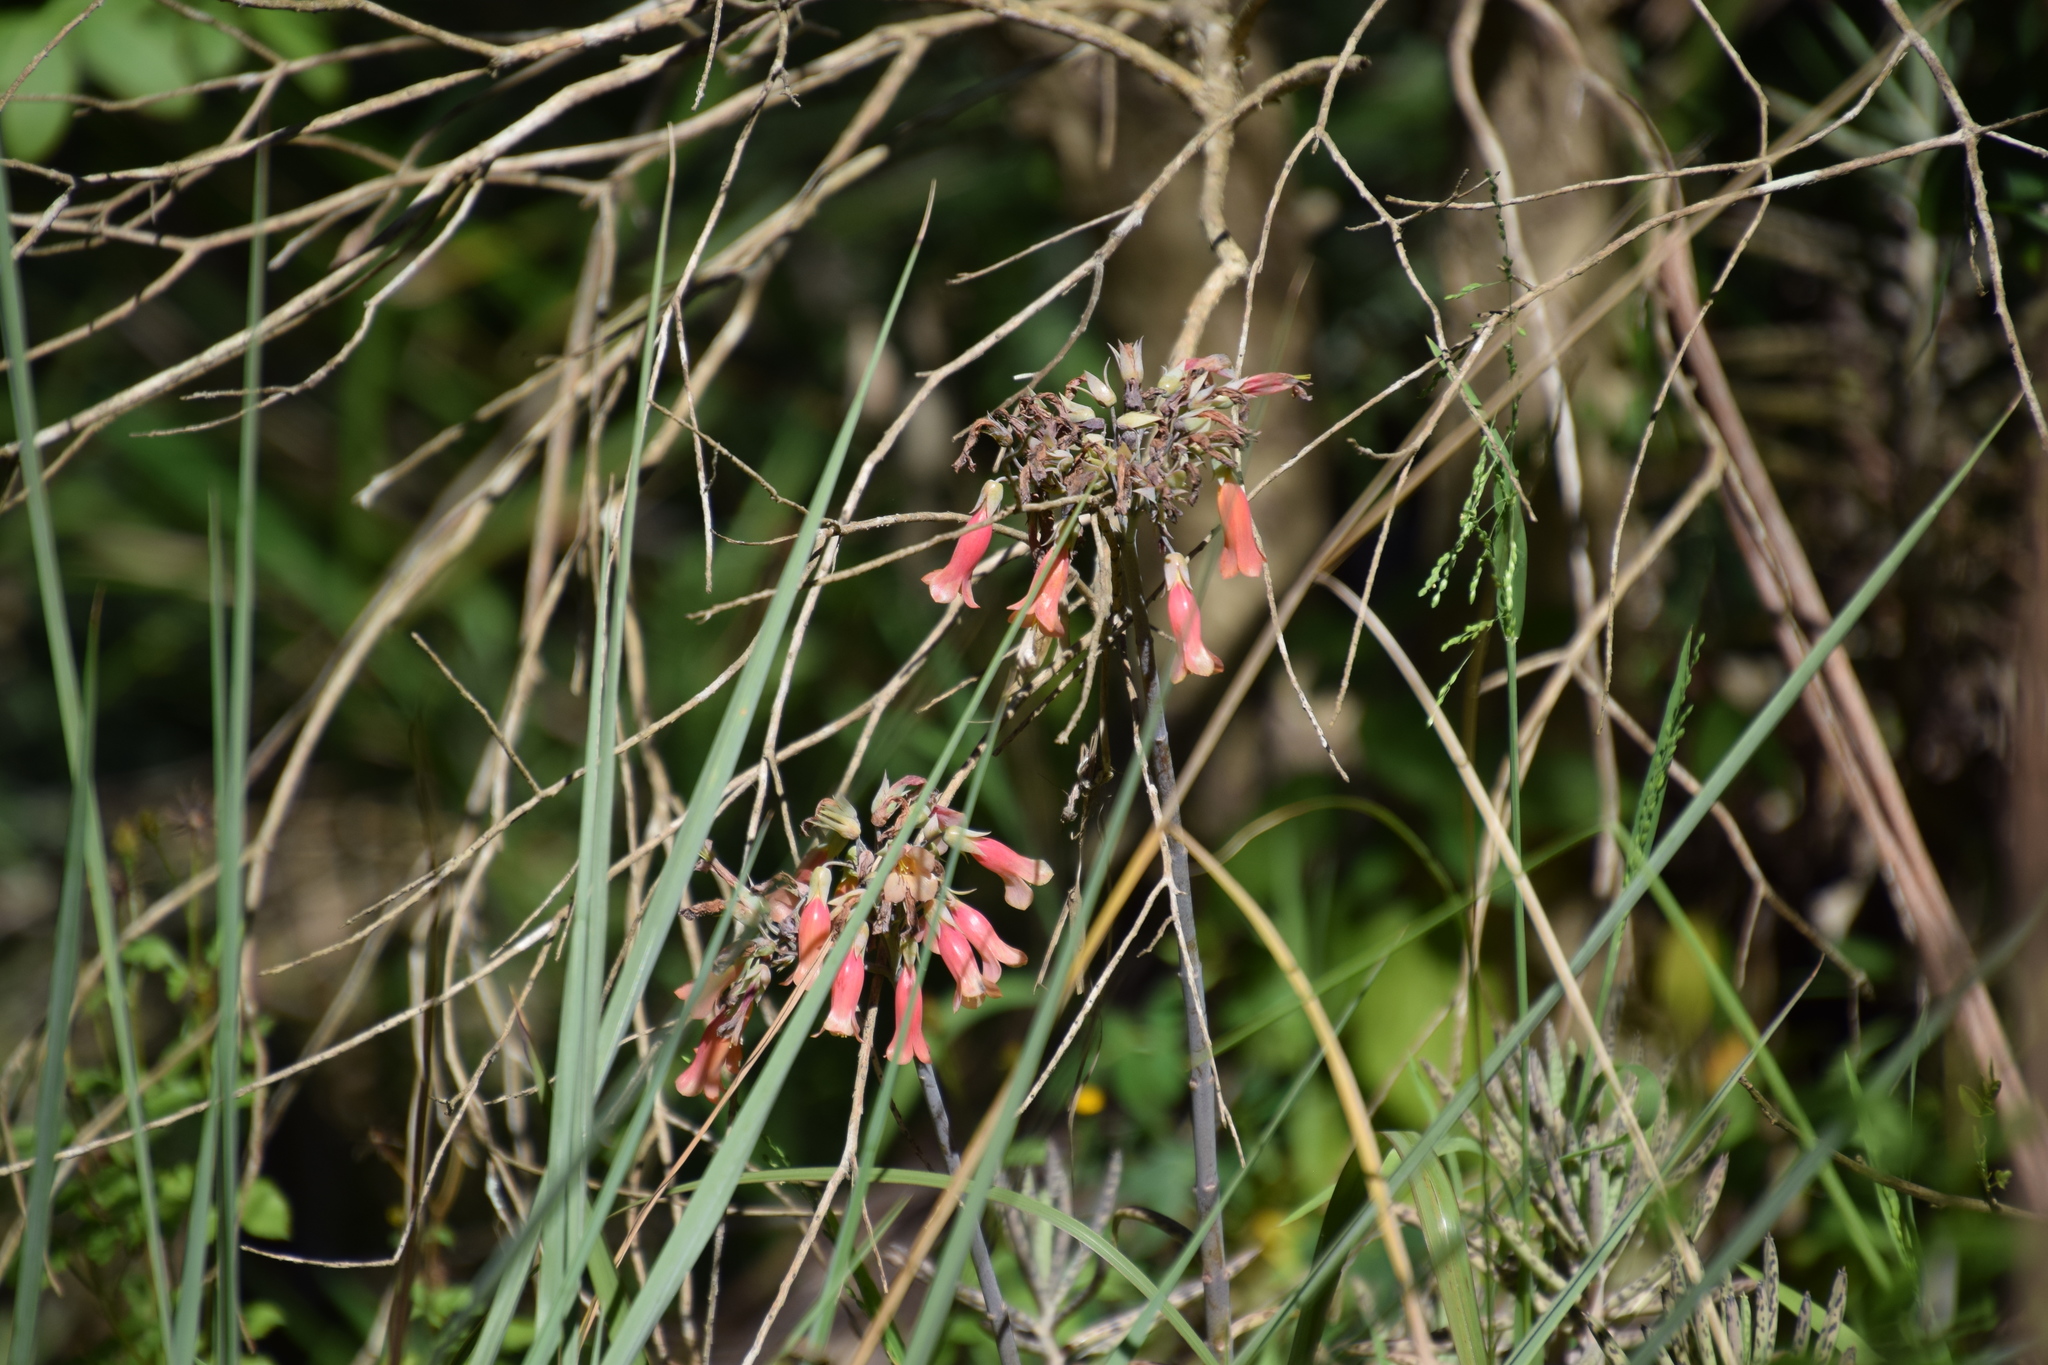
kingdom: Plantae
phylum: Tracheophyta
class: Magnoliopsida
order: Saxifragales
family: Crassulaceae
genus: Kalanchoe
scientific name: Kalanchoe delagoensis
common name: Chandelier plant
